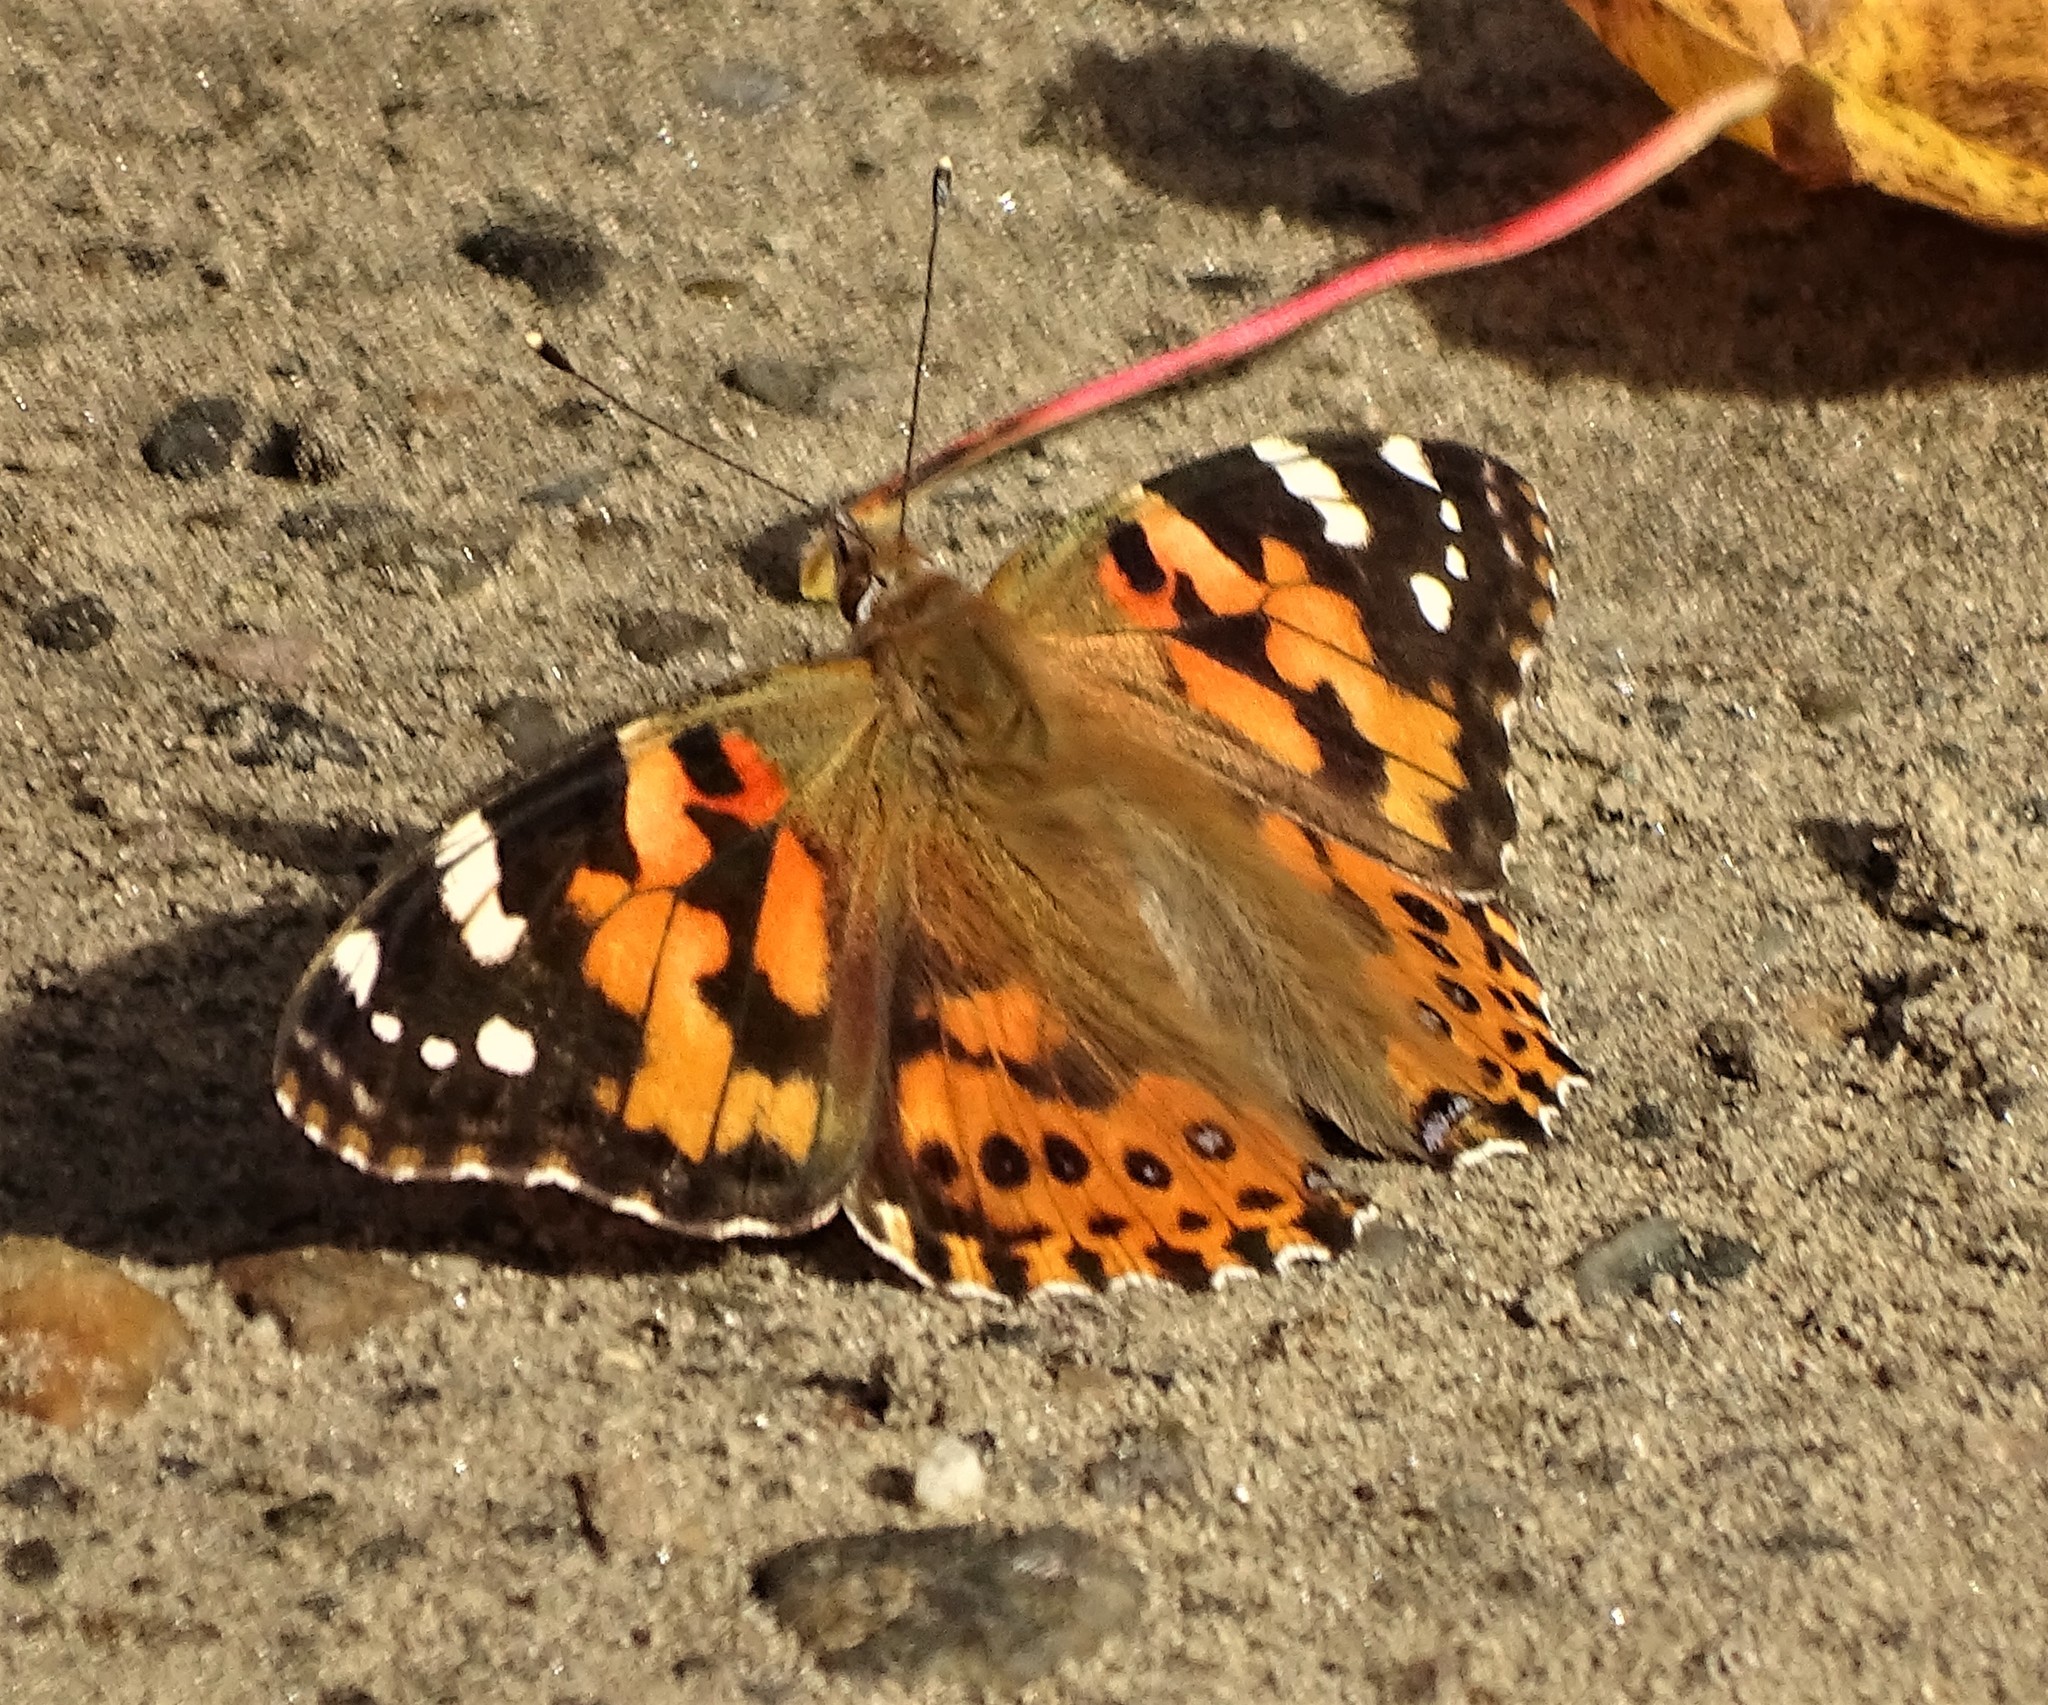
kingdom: Animalia
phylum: Arthropoda
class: Insecta
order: Lepidoptera
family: Nymphalidae
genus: Vanessa
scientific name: Vanessa cardui
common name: Painted lady
